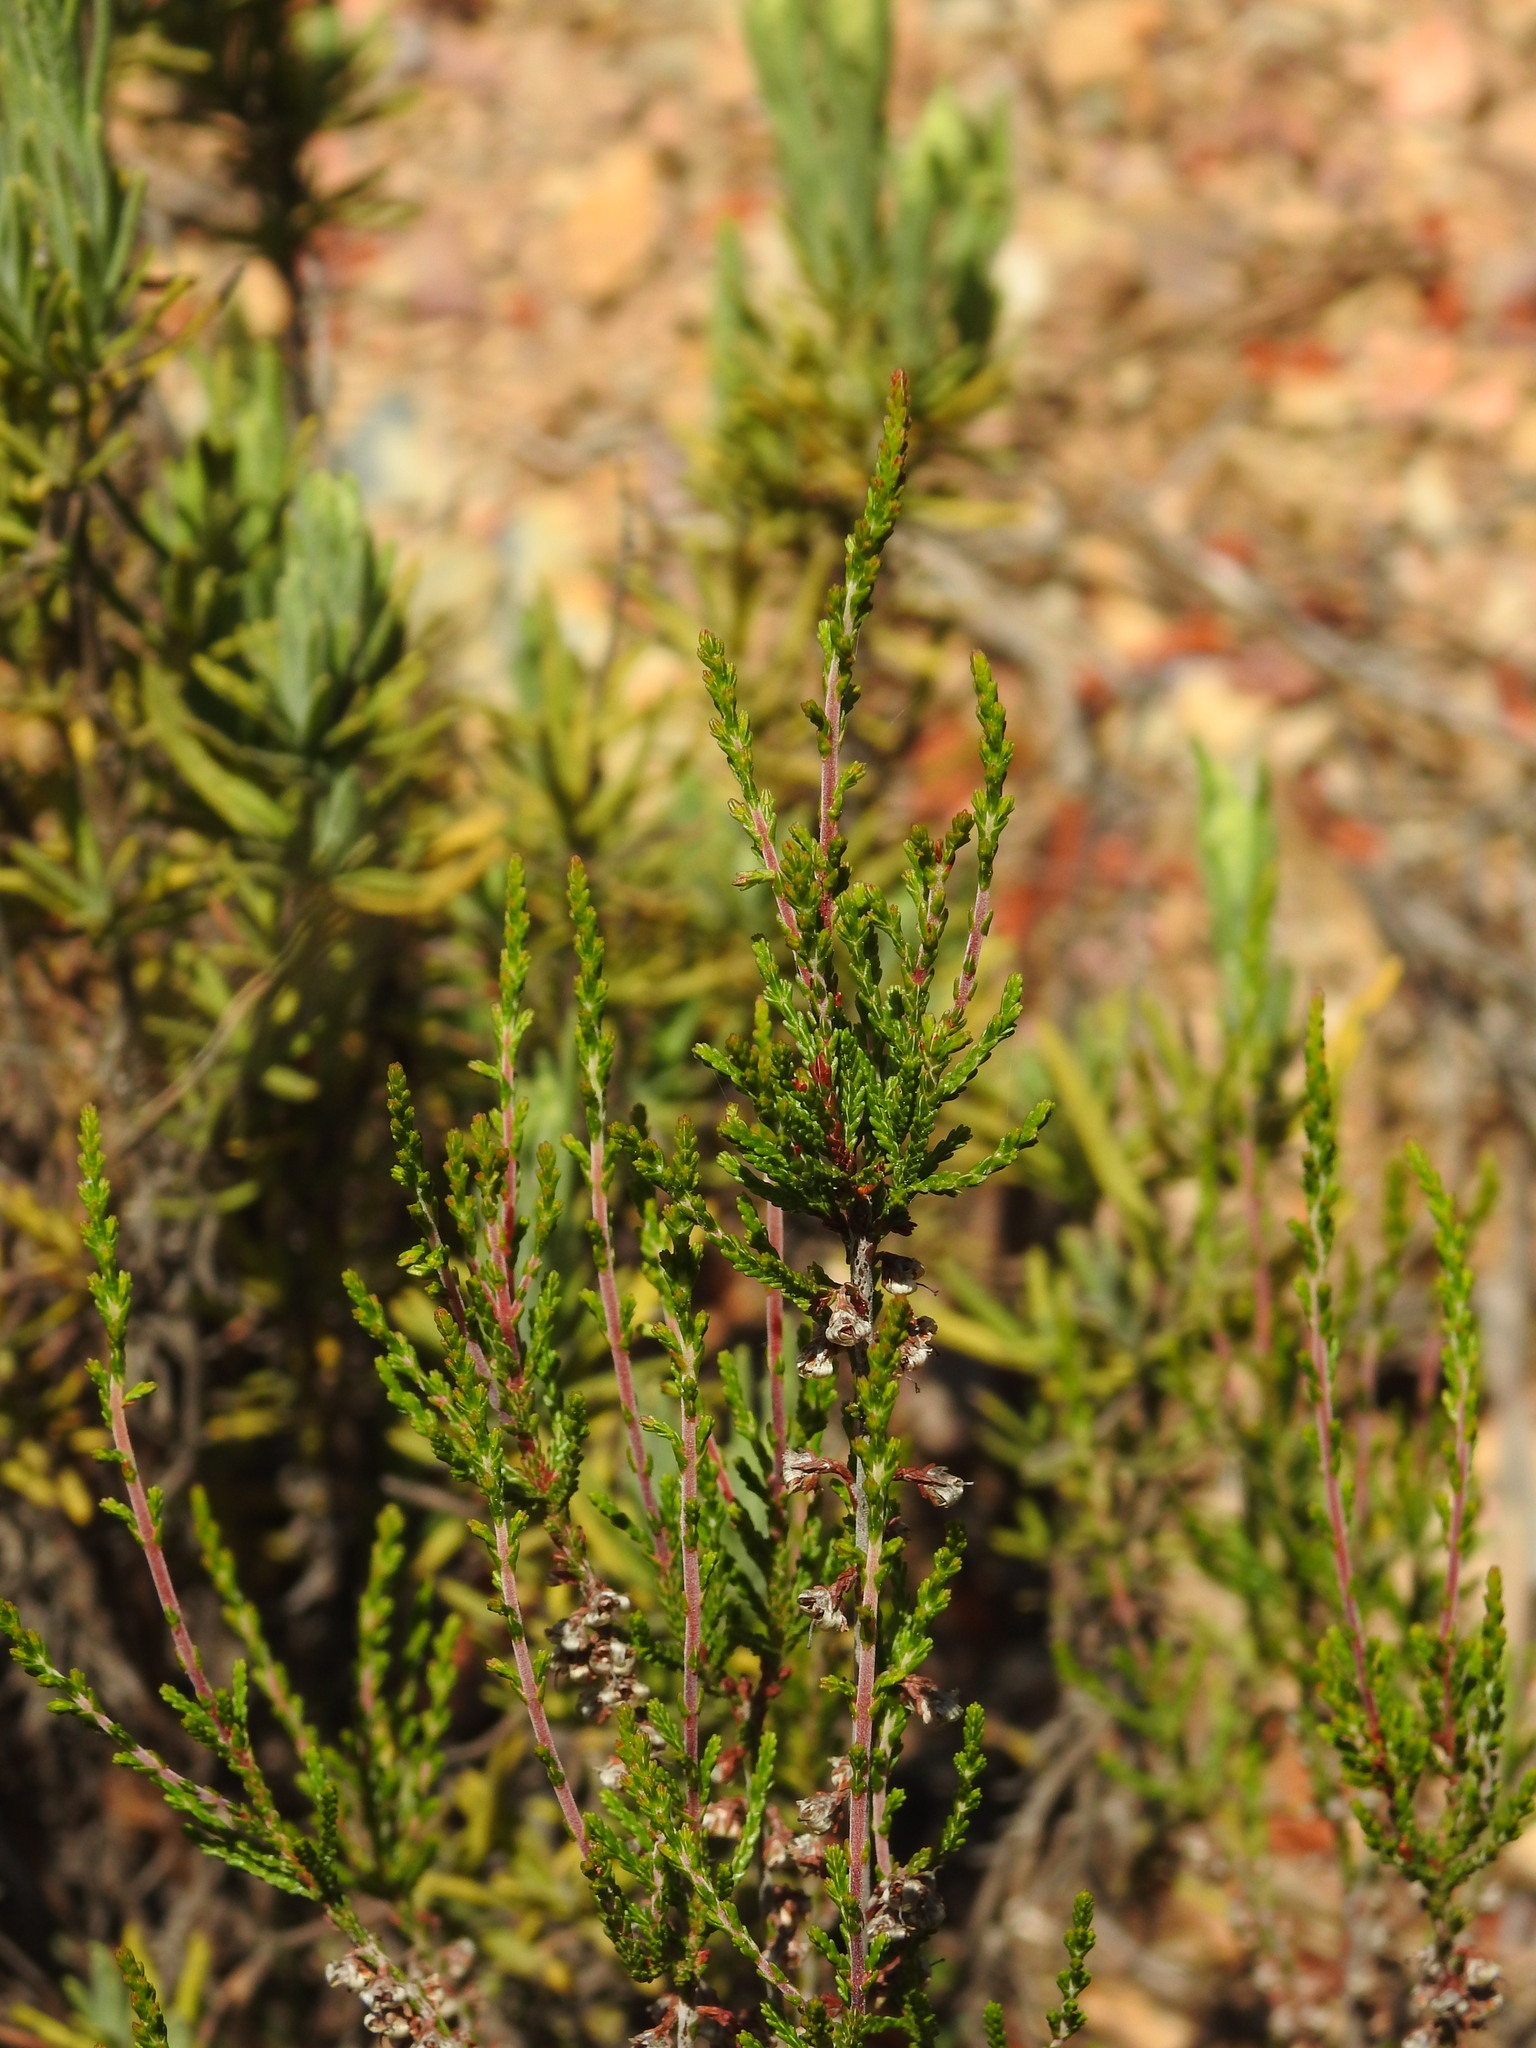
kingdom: Plantae
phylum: Tracheophyta
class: Magnoliopsida
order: Ericales
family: Ericaceae
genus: Calluna
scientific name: Calluna vulgaris
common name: Heather
